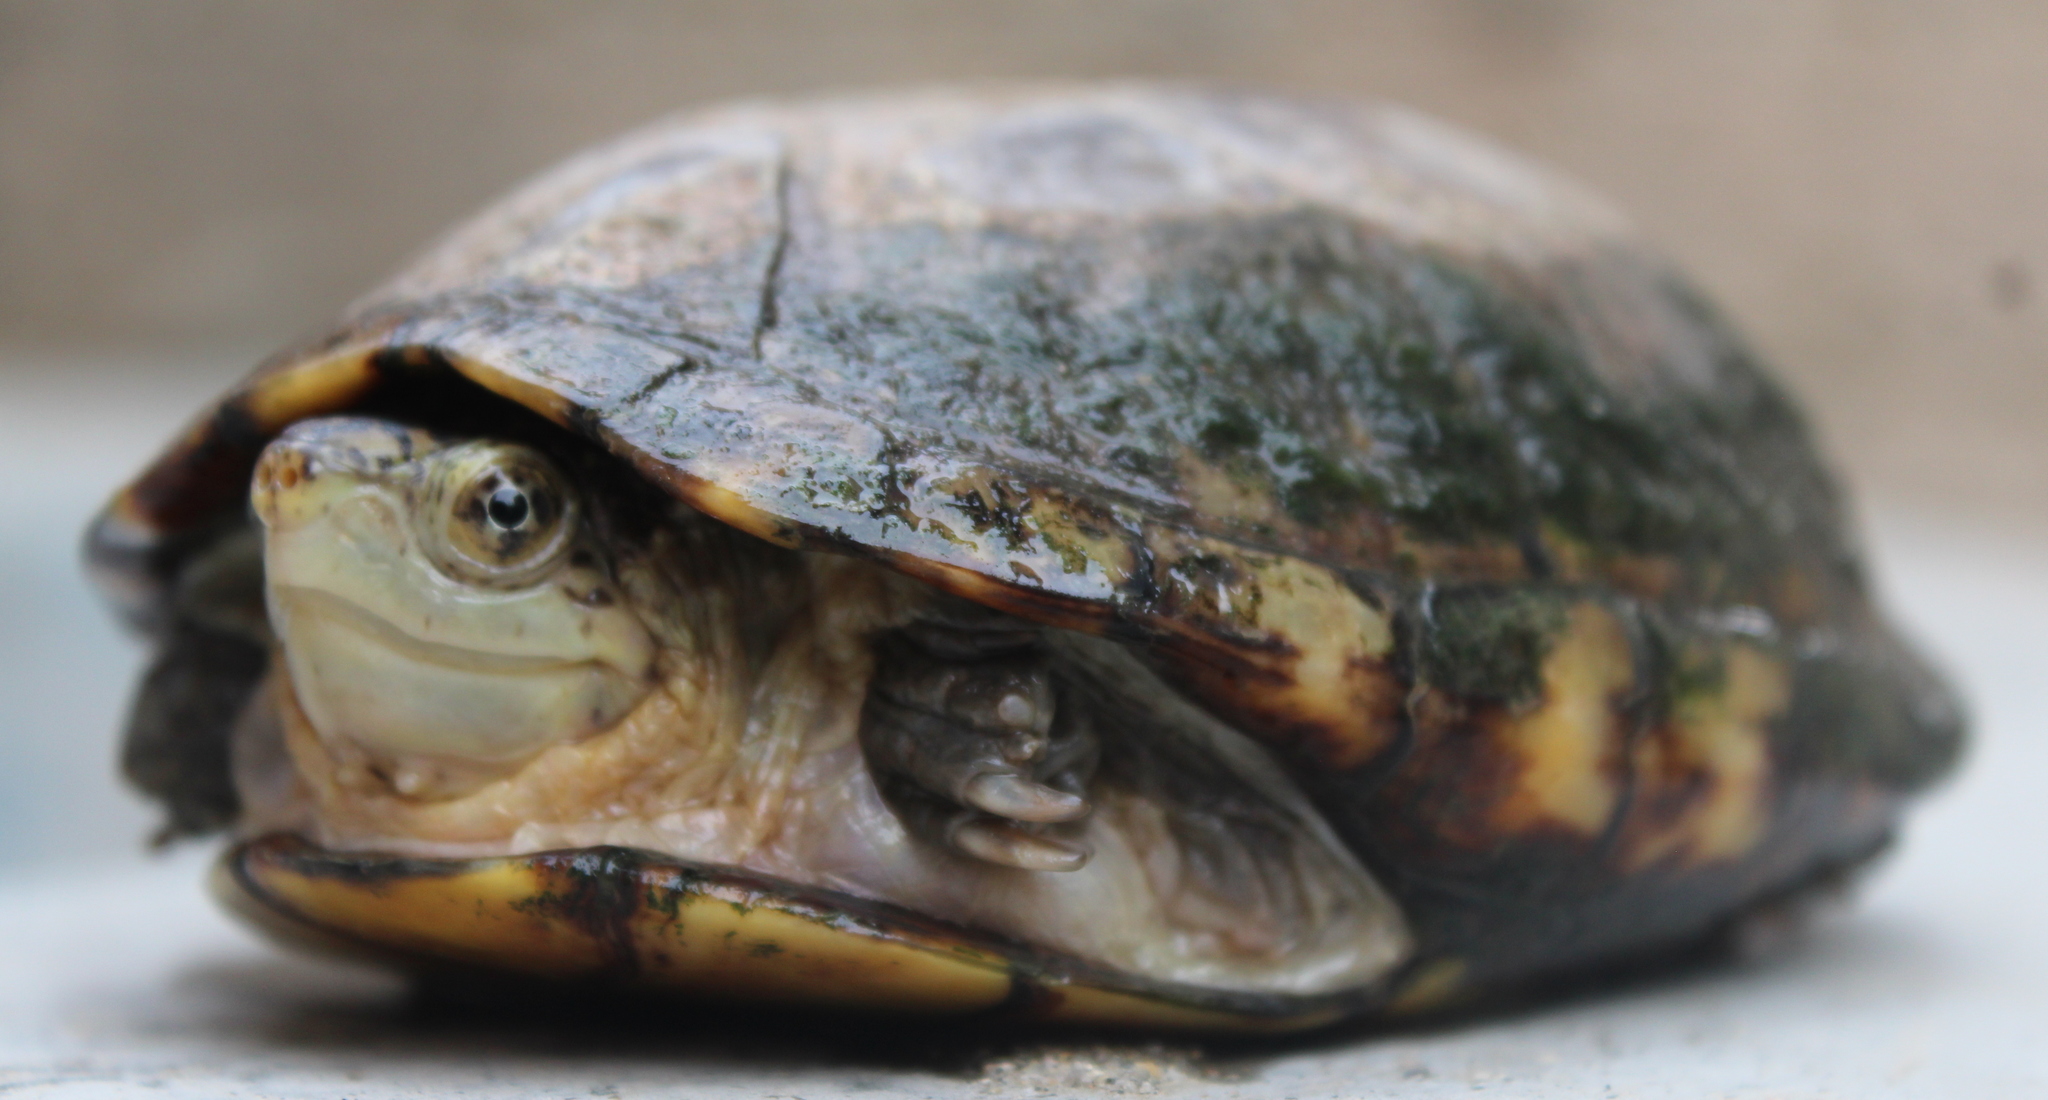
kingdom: Animalia
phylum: Chordata
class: Testudines
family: Kinosternidae
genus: Kinosternon
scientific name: Kinosternon integrum
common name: Mexican mud turtle
